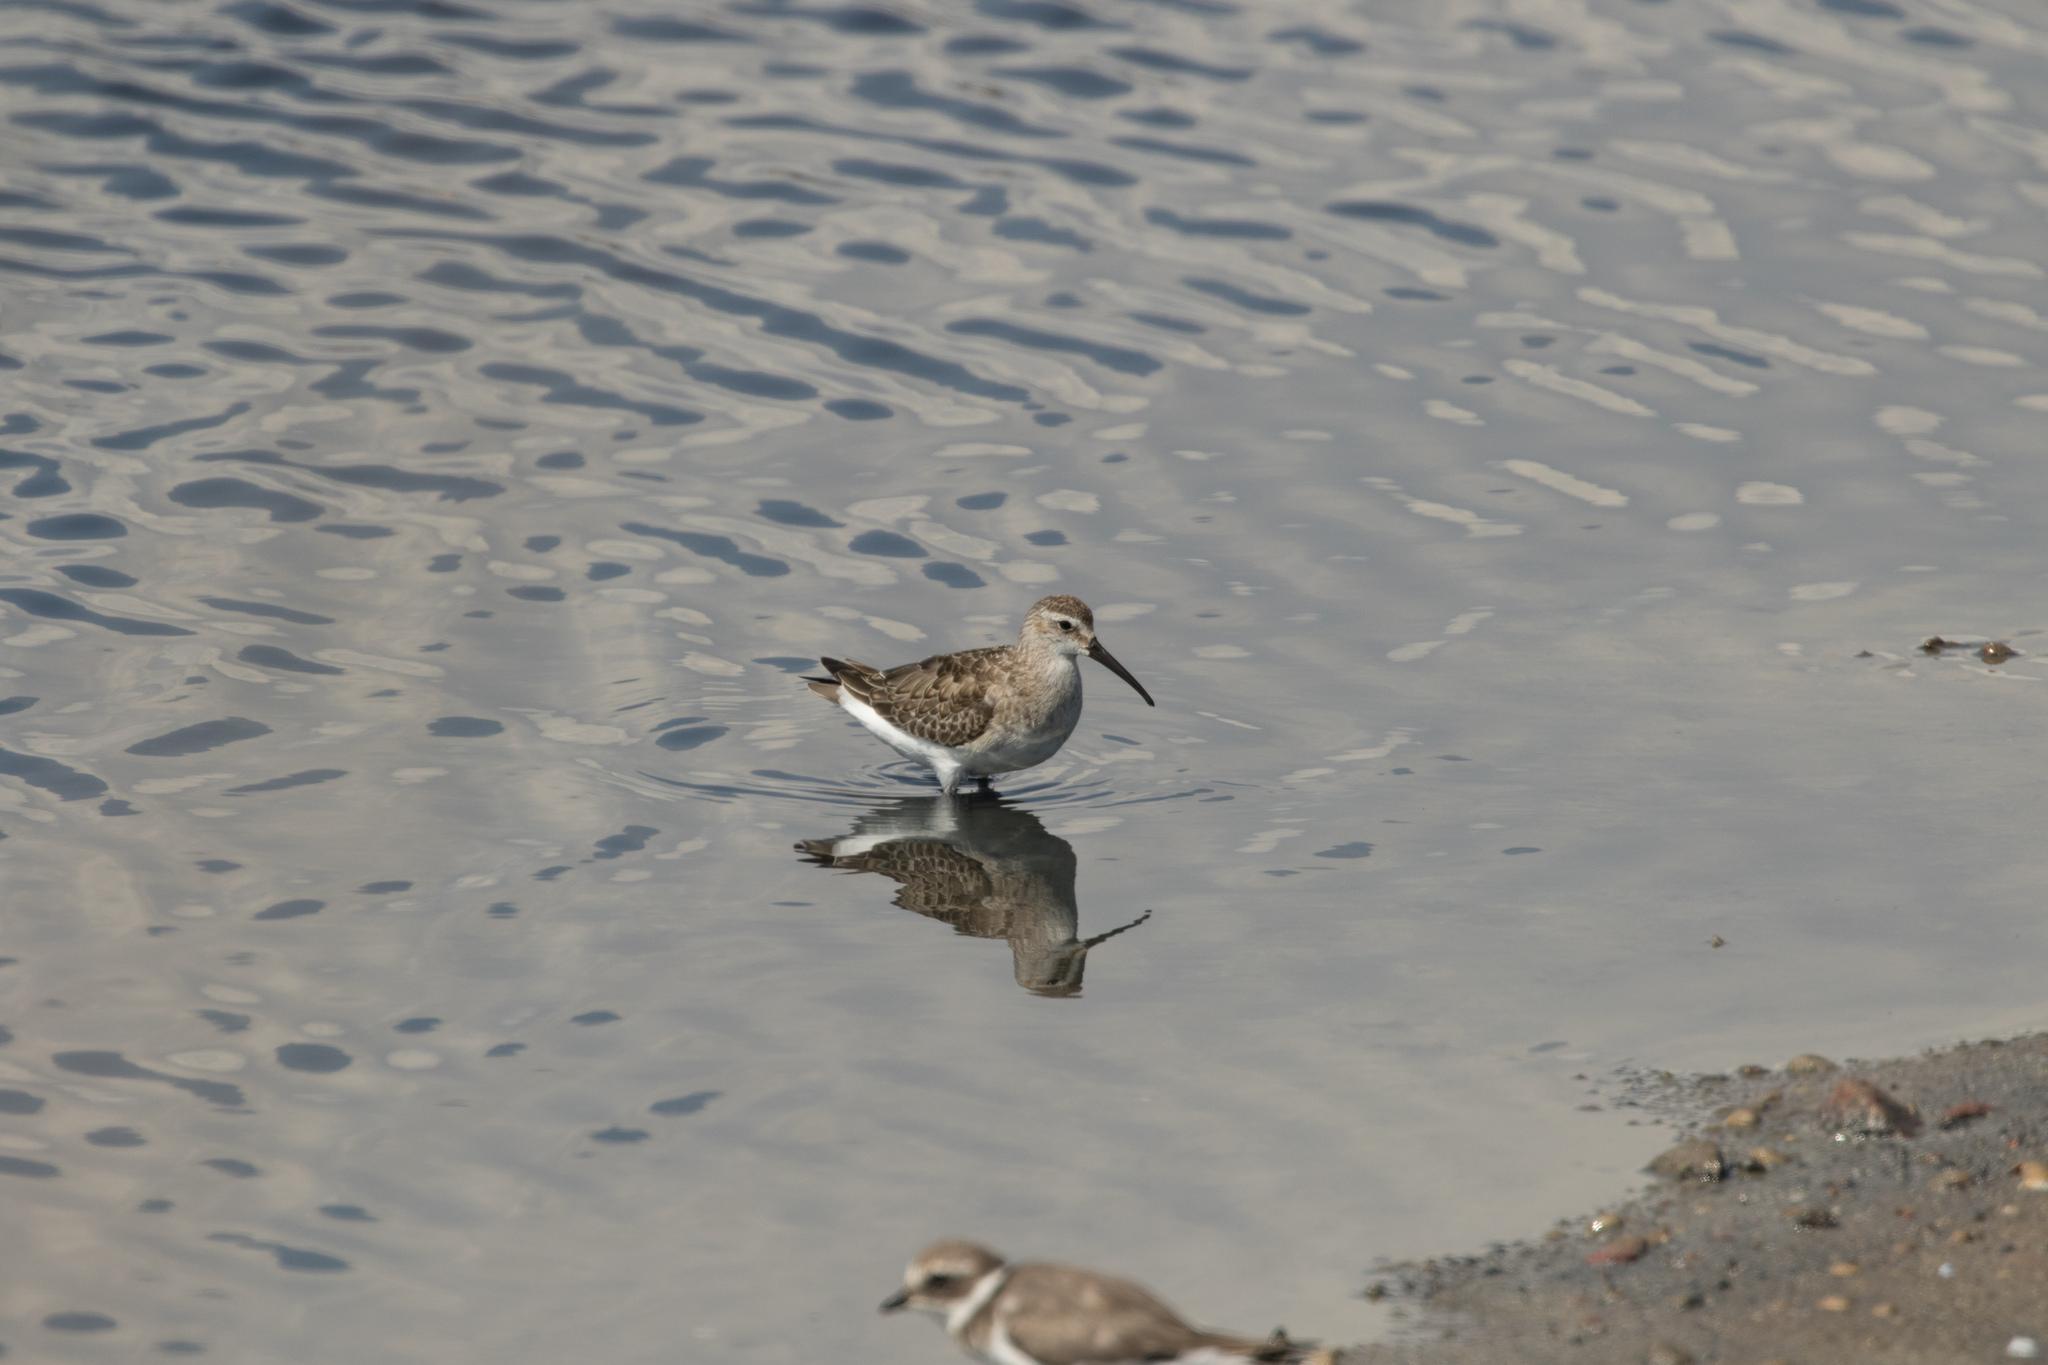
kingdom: Animalia
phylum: Chordata
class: Aves
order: Charadriiformes
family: Scolopacidae
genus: Calidris
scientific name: Calidris ferruginea
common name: Curlew sandpiper
